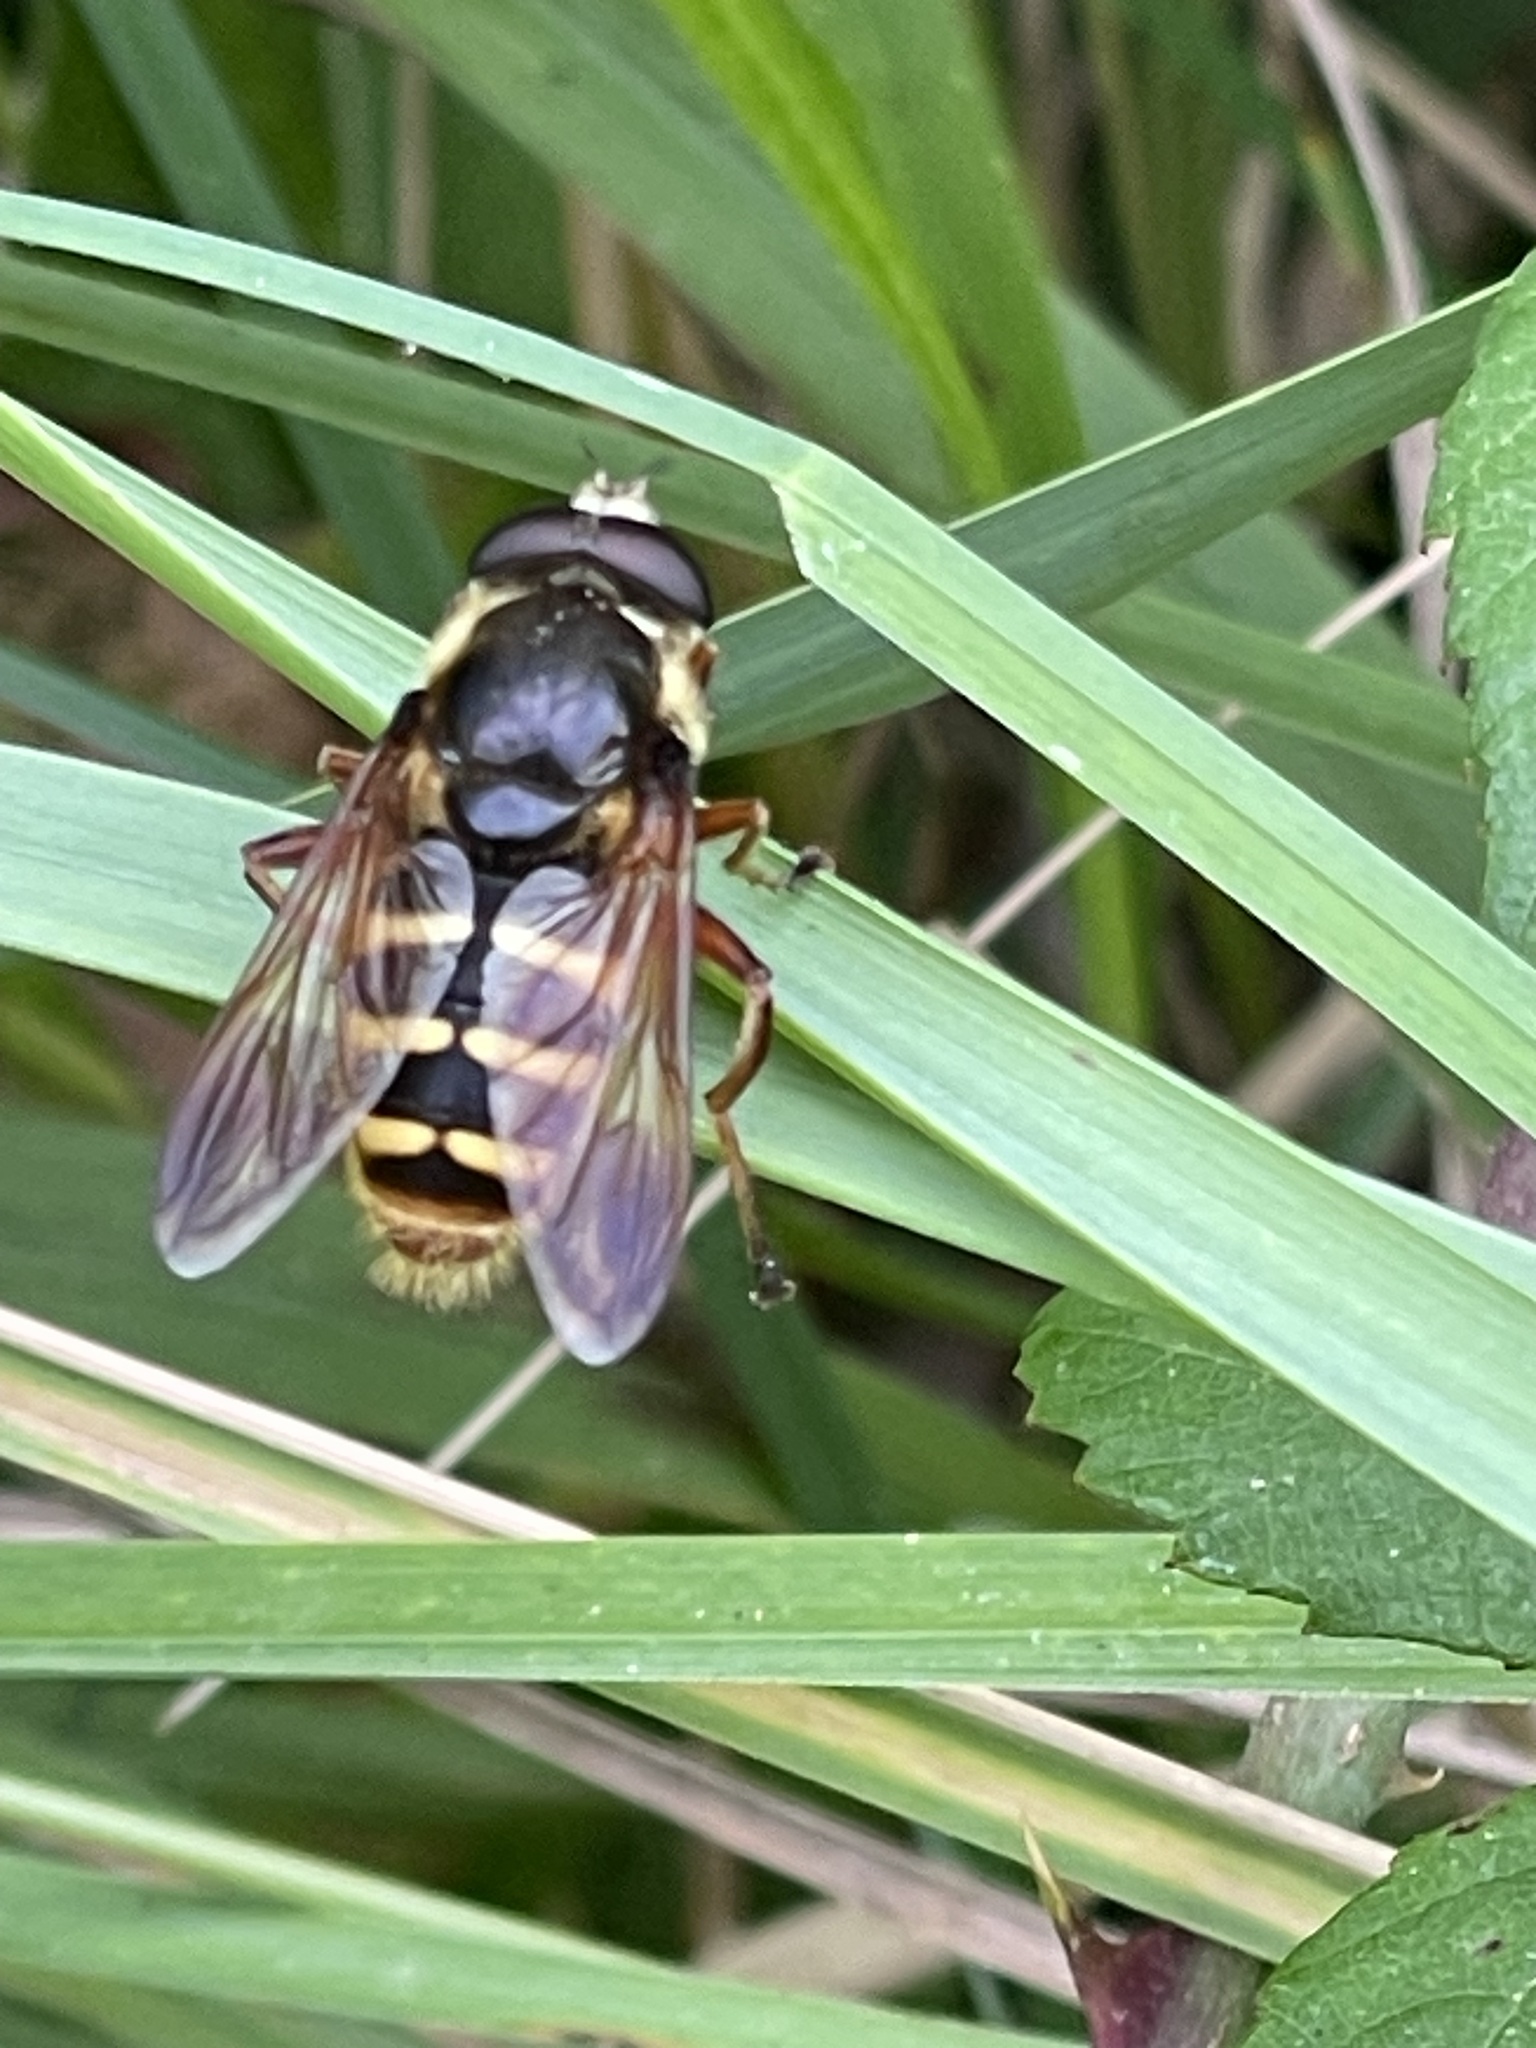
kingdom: Animalia
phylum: Arthropoda
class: Insecta
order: Diptera
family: Syrphidae
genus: Sericomyia
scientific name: Sericomyia silentis
